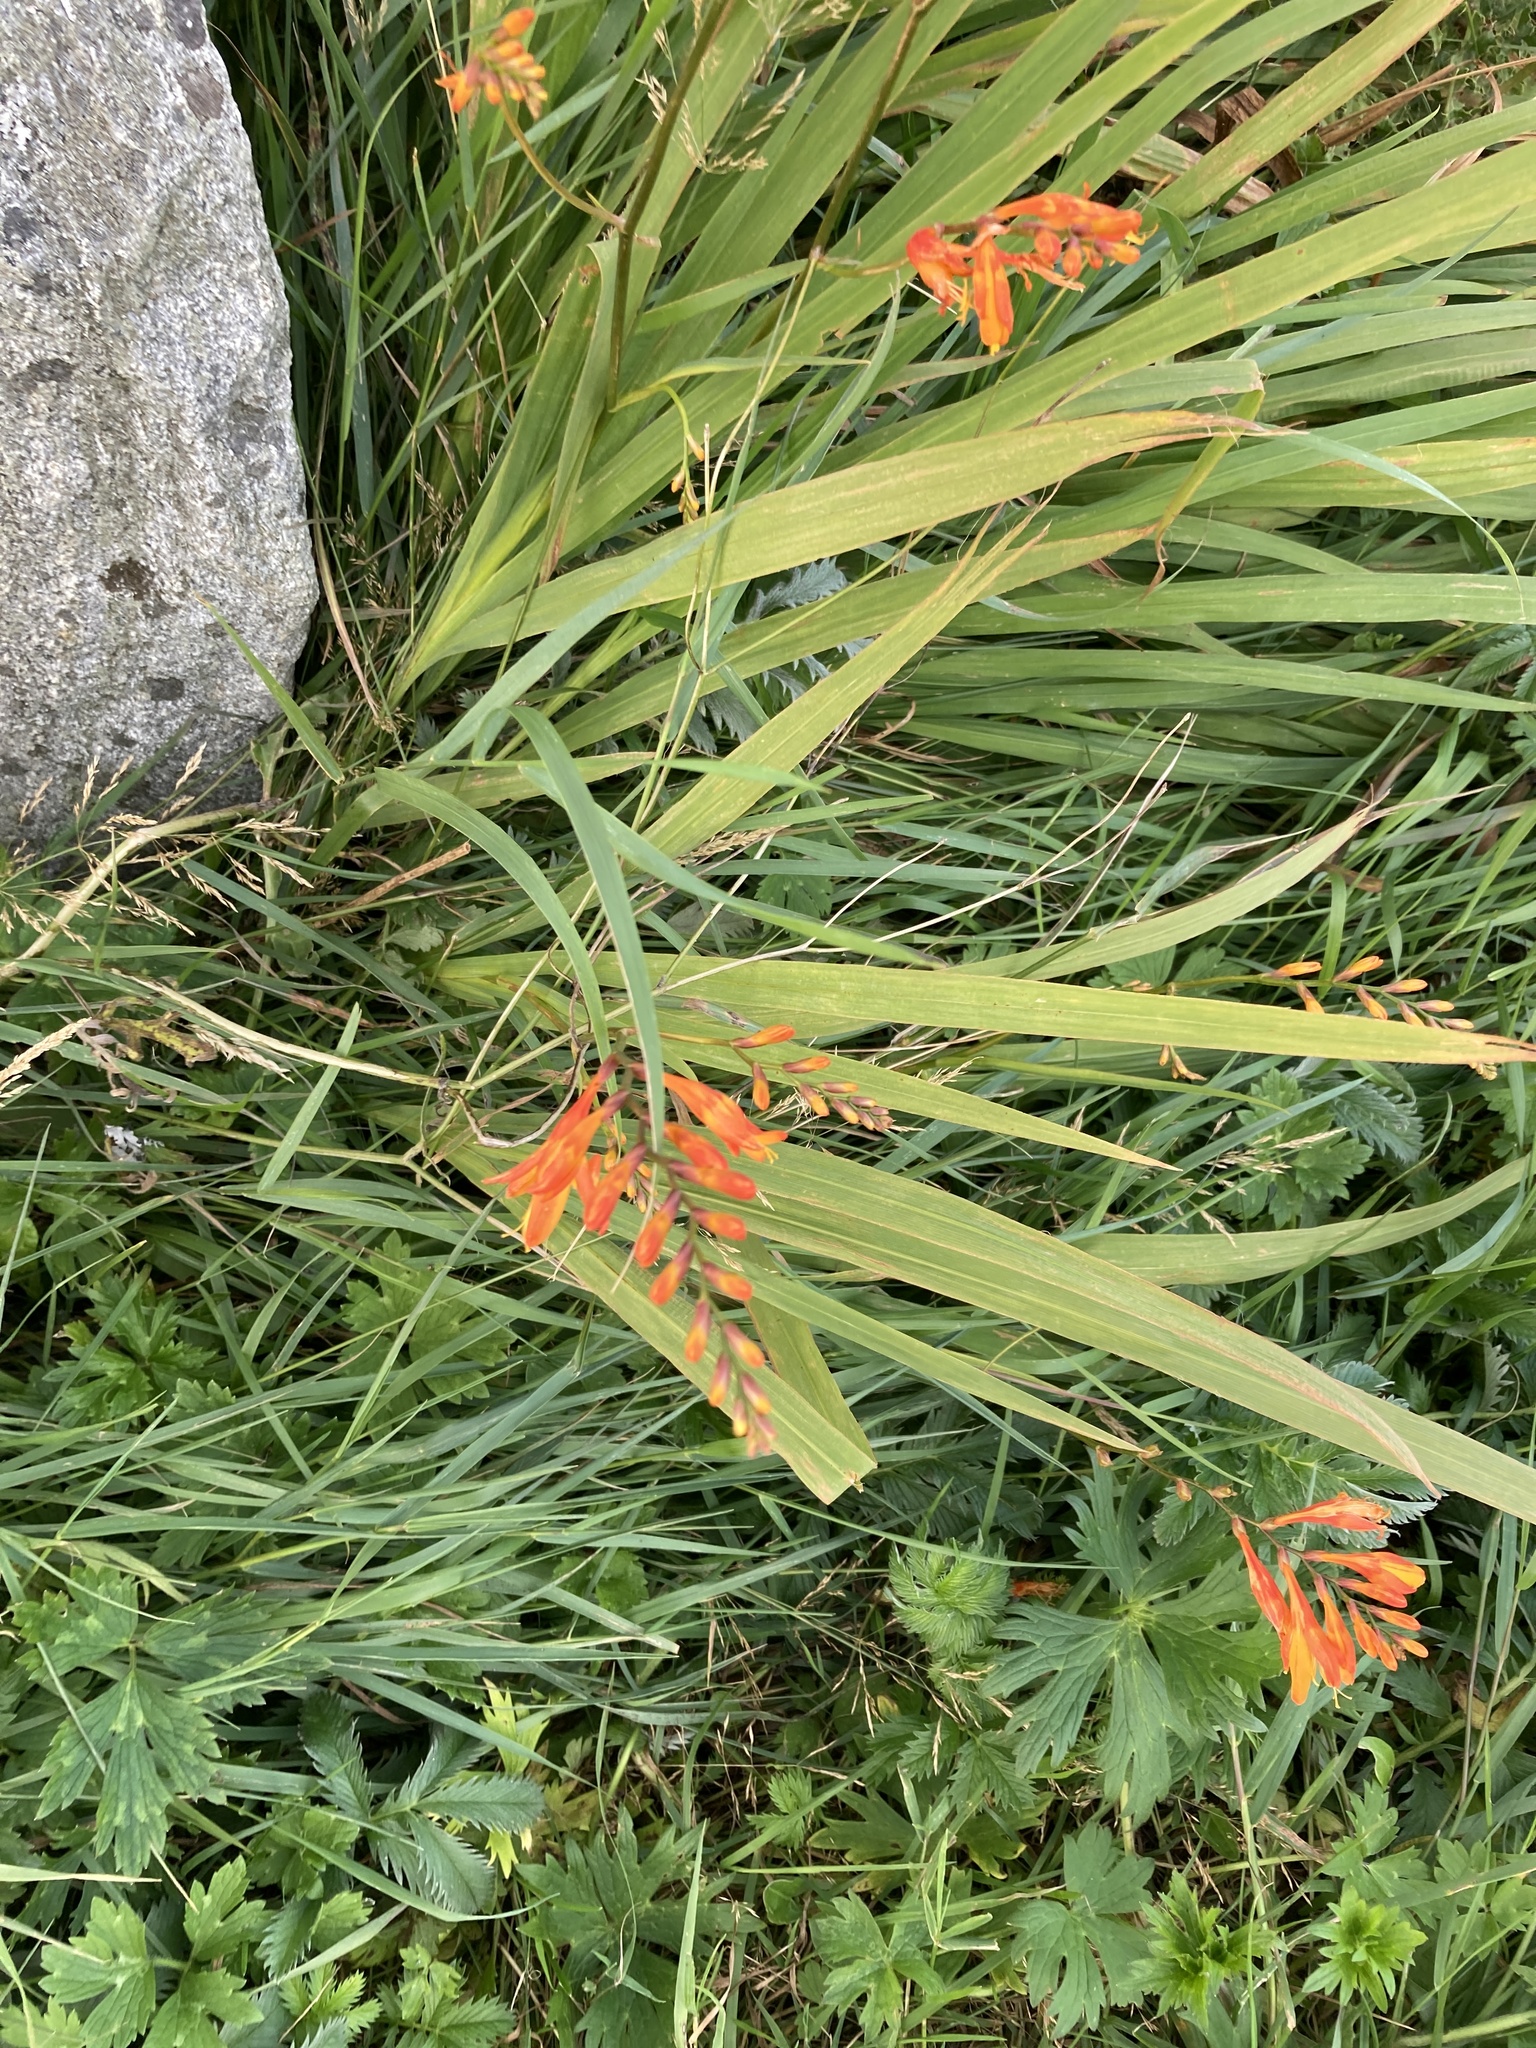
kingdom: Plantae
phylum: Tracheophyta
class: Liliopsida
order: Asparagales
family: Iridaceae
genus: Crocosmia
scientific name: Crocosmia crocosmiiflora
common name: Montbretia
